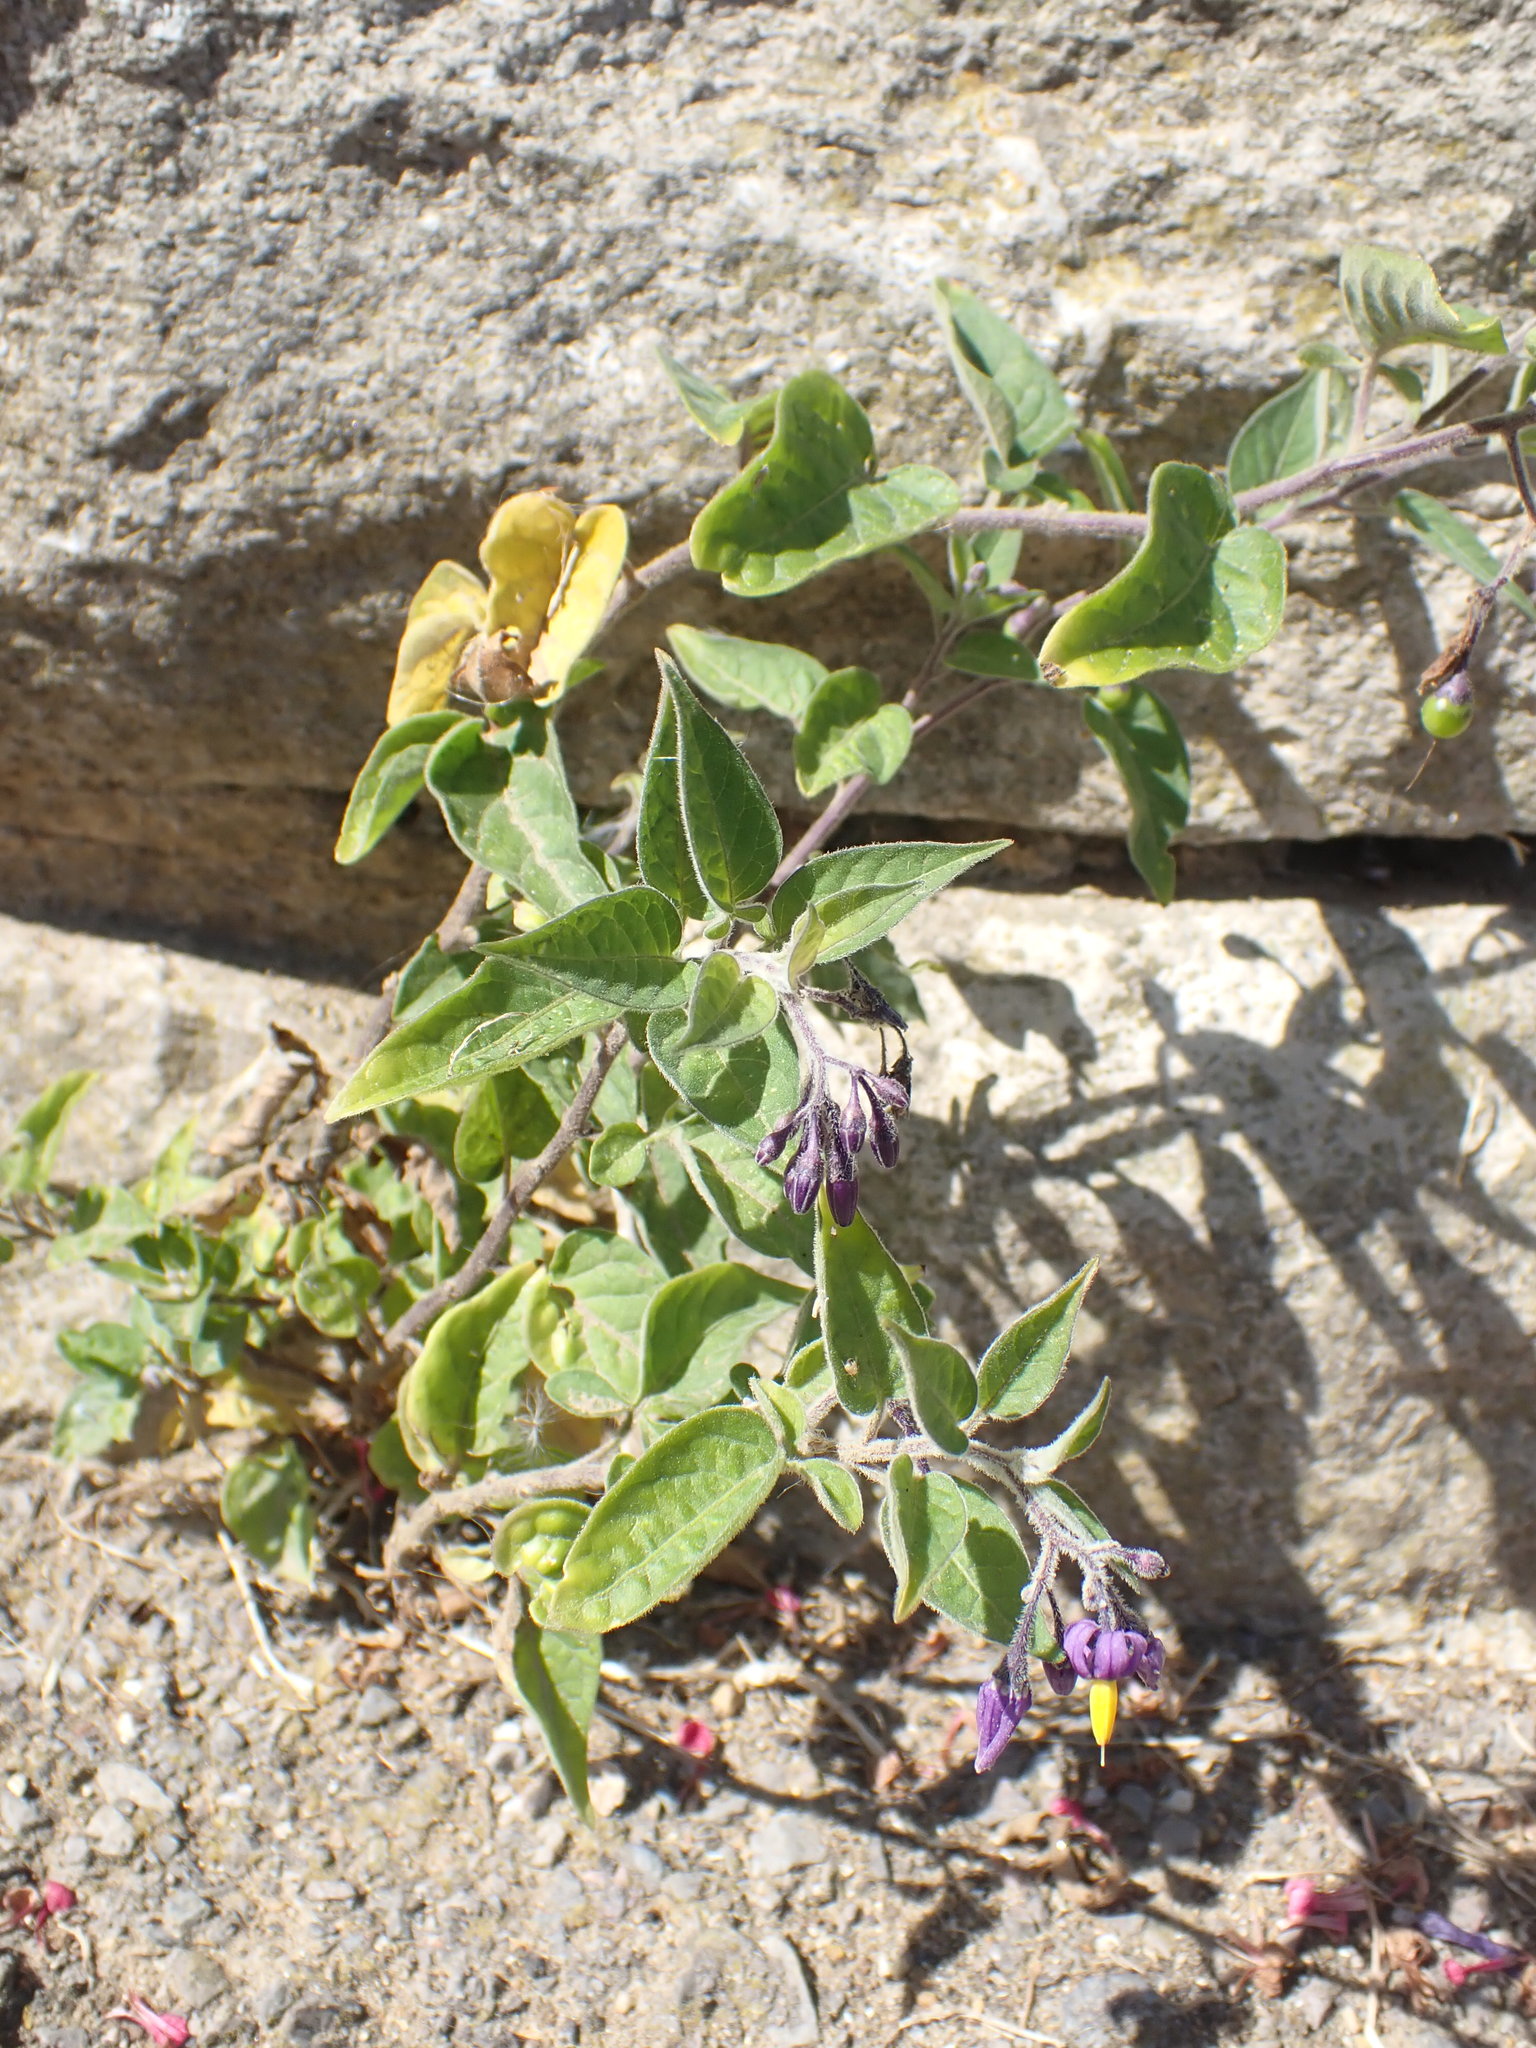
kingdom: Plantae
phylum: Tracheophyta
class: Magnoliopsida
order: Solanales
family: Solanaceae
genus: Solanum
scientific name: Solanum dulcamara
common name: Climbing nightshade
